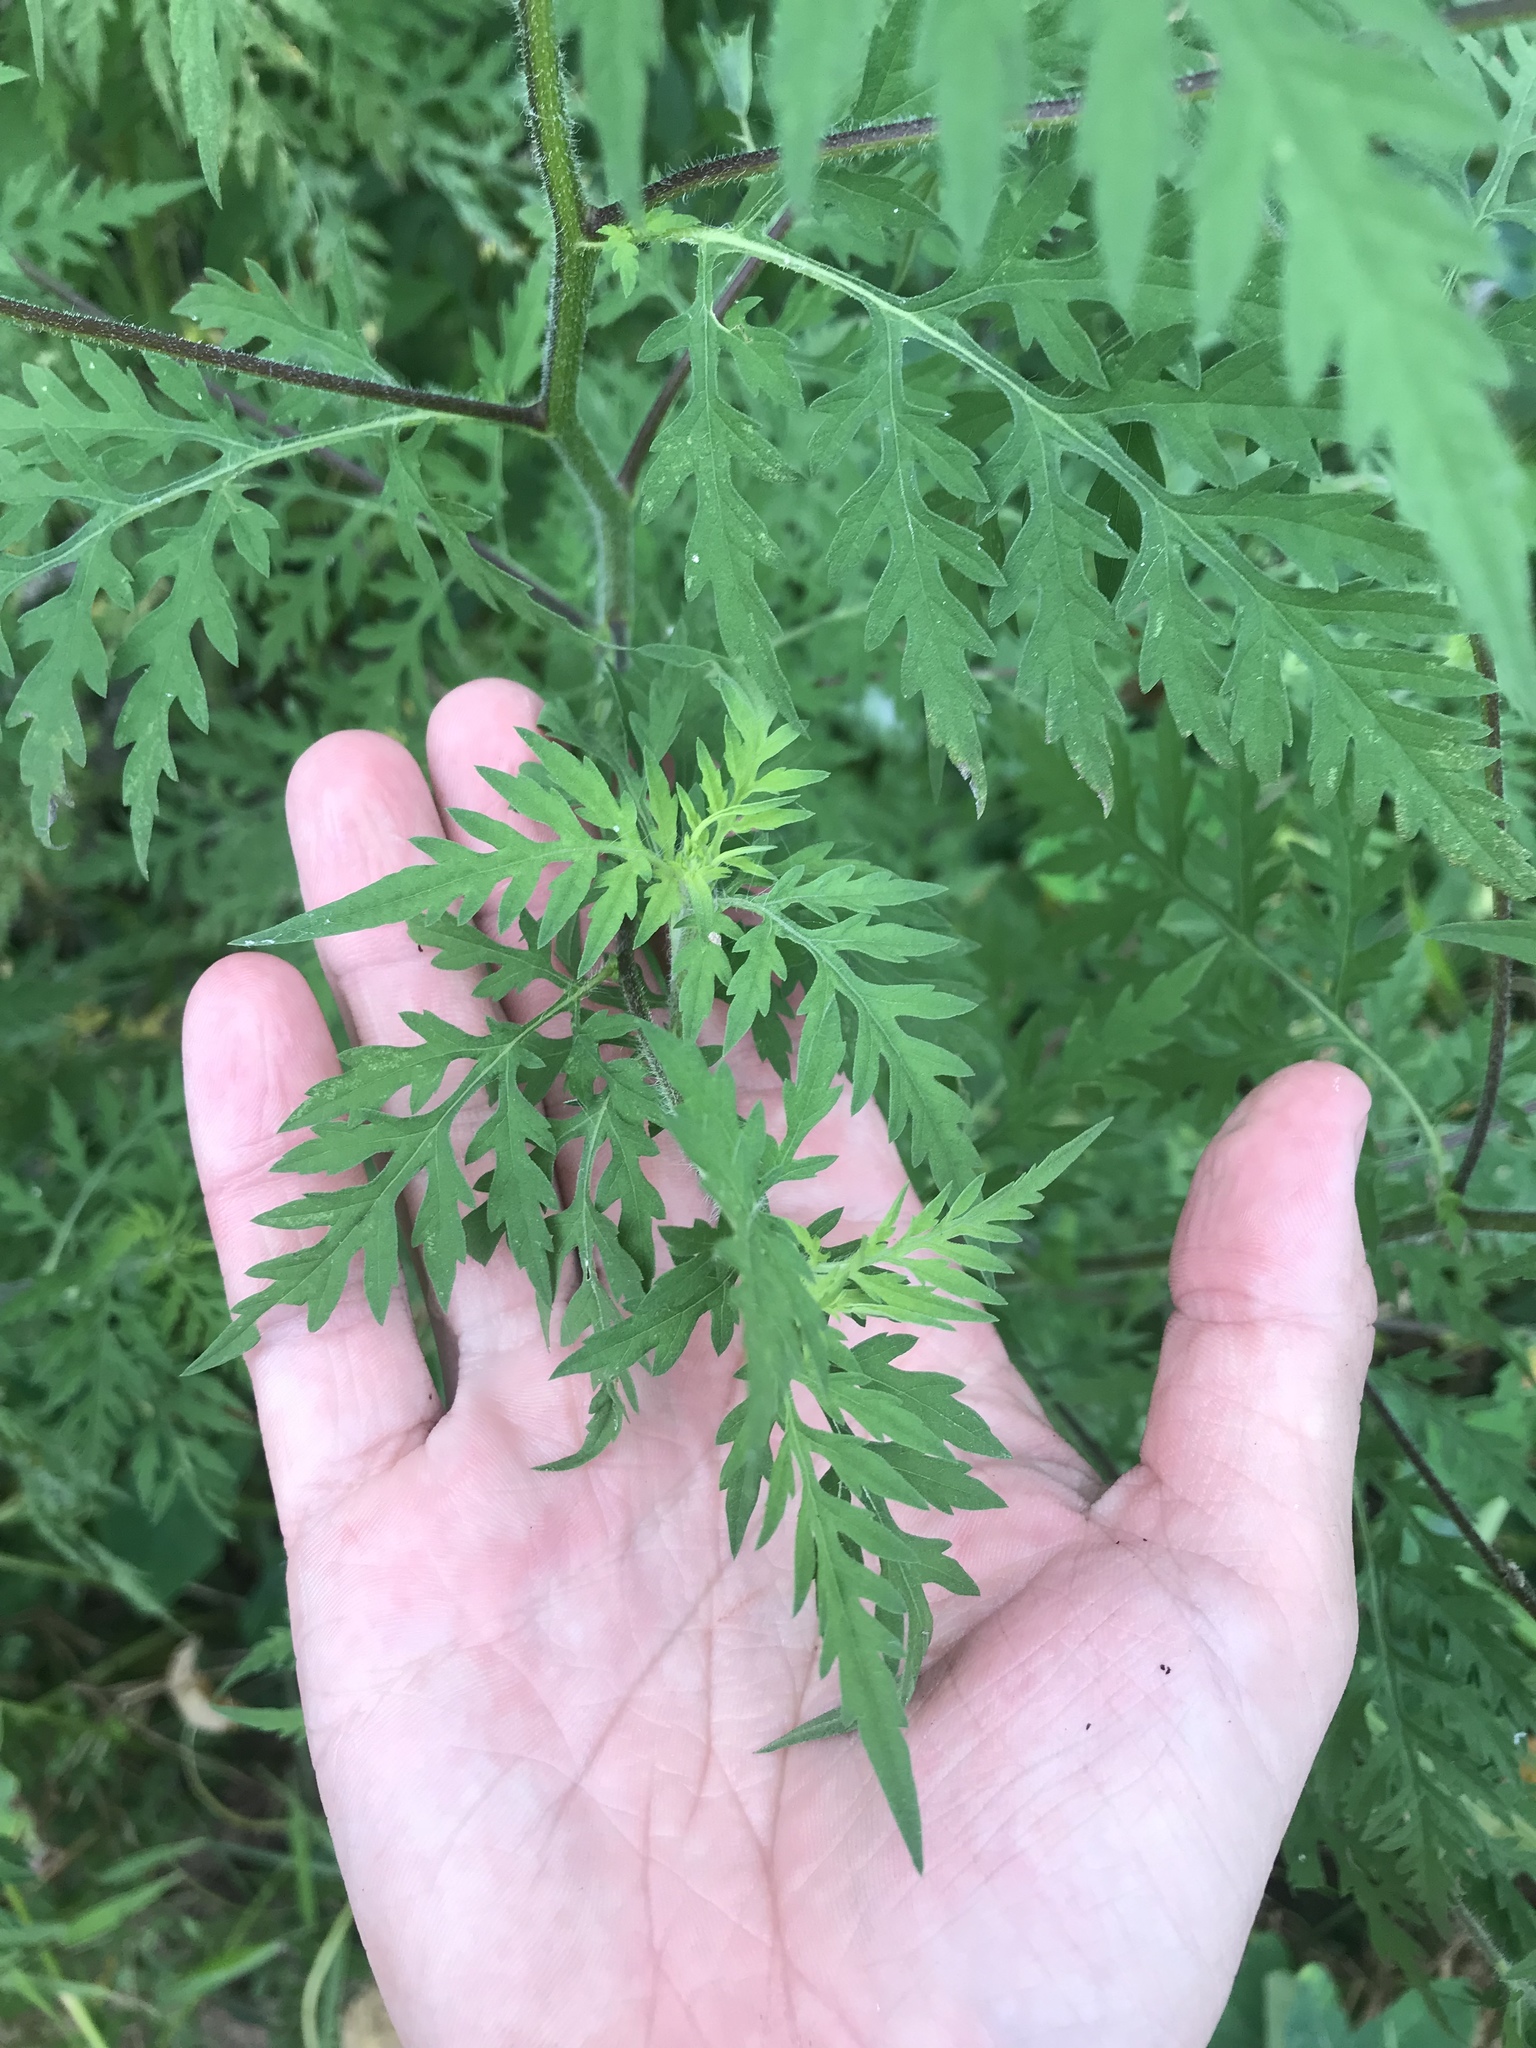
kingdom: Plantae
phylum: Tracheophyta
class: Magnoliopsida
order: Asterales
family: Asteraceae
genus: Ambrosia
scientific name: Ambrosia artemisiifolia
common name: Annual ragweed
